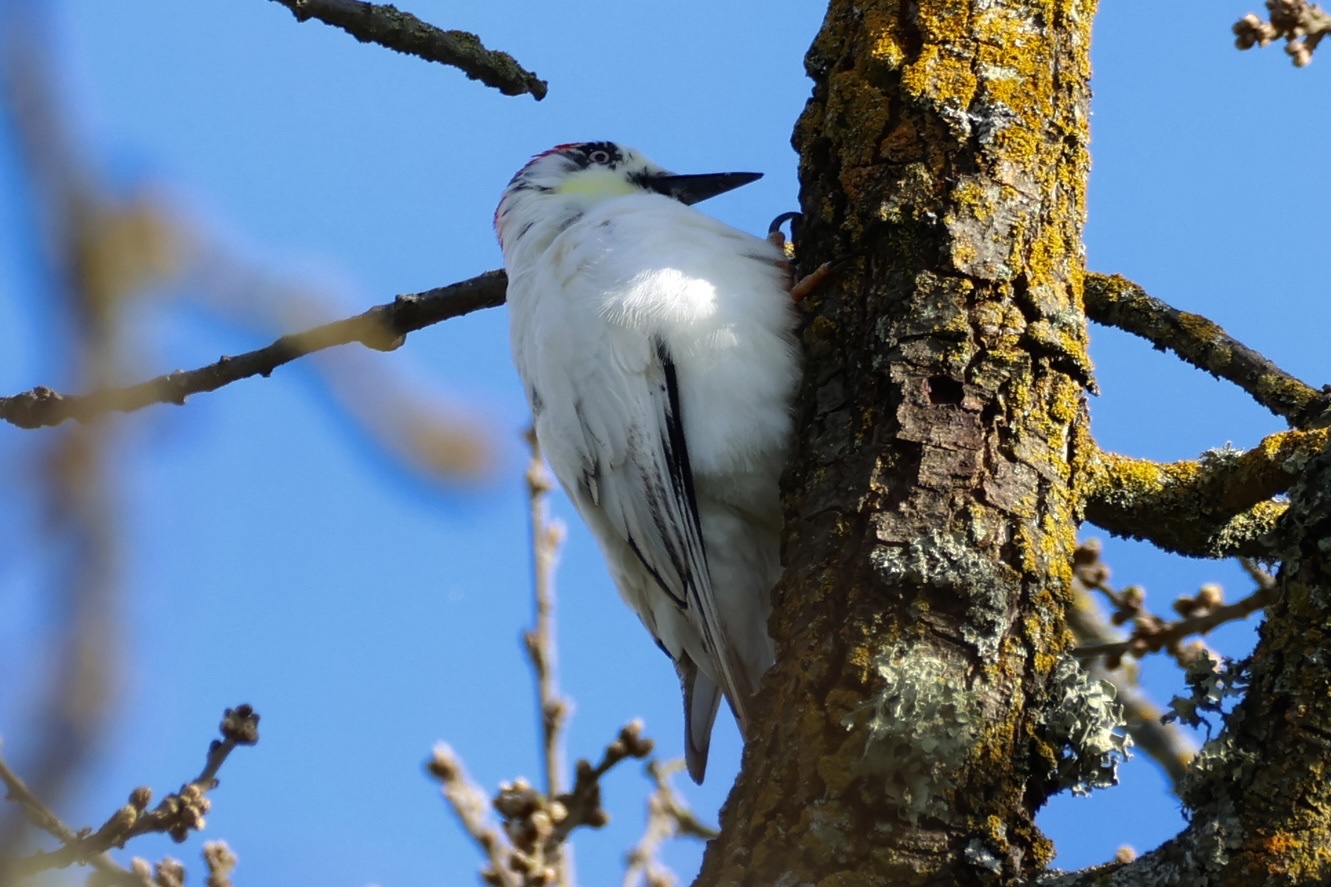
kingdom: Animalia
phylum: Chordata
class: Aves
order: Piciformes
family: Picidae
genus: Melanerpes
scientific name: Melanerpes formicivorus
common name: Acorn woodpecker
